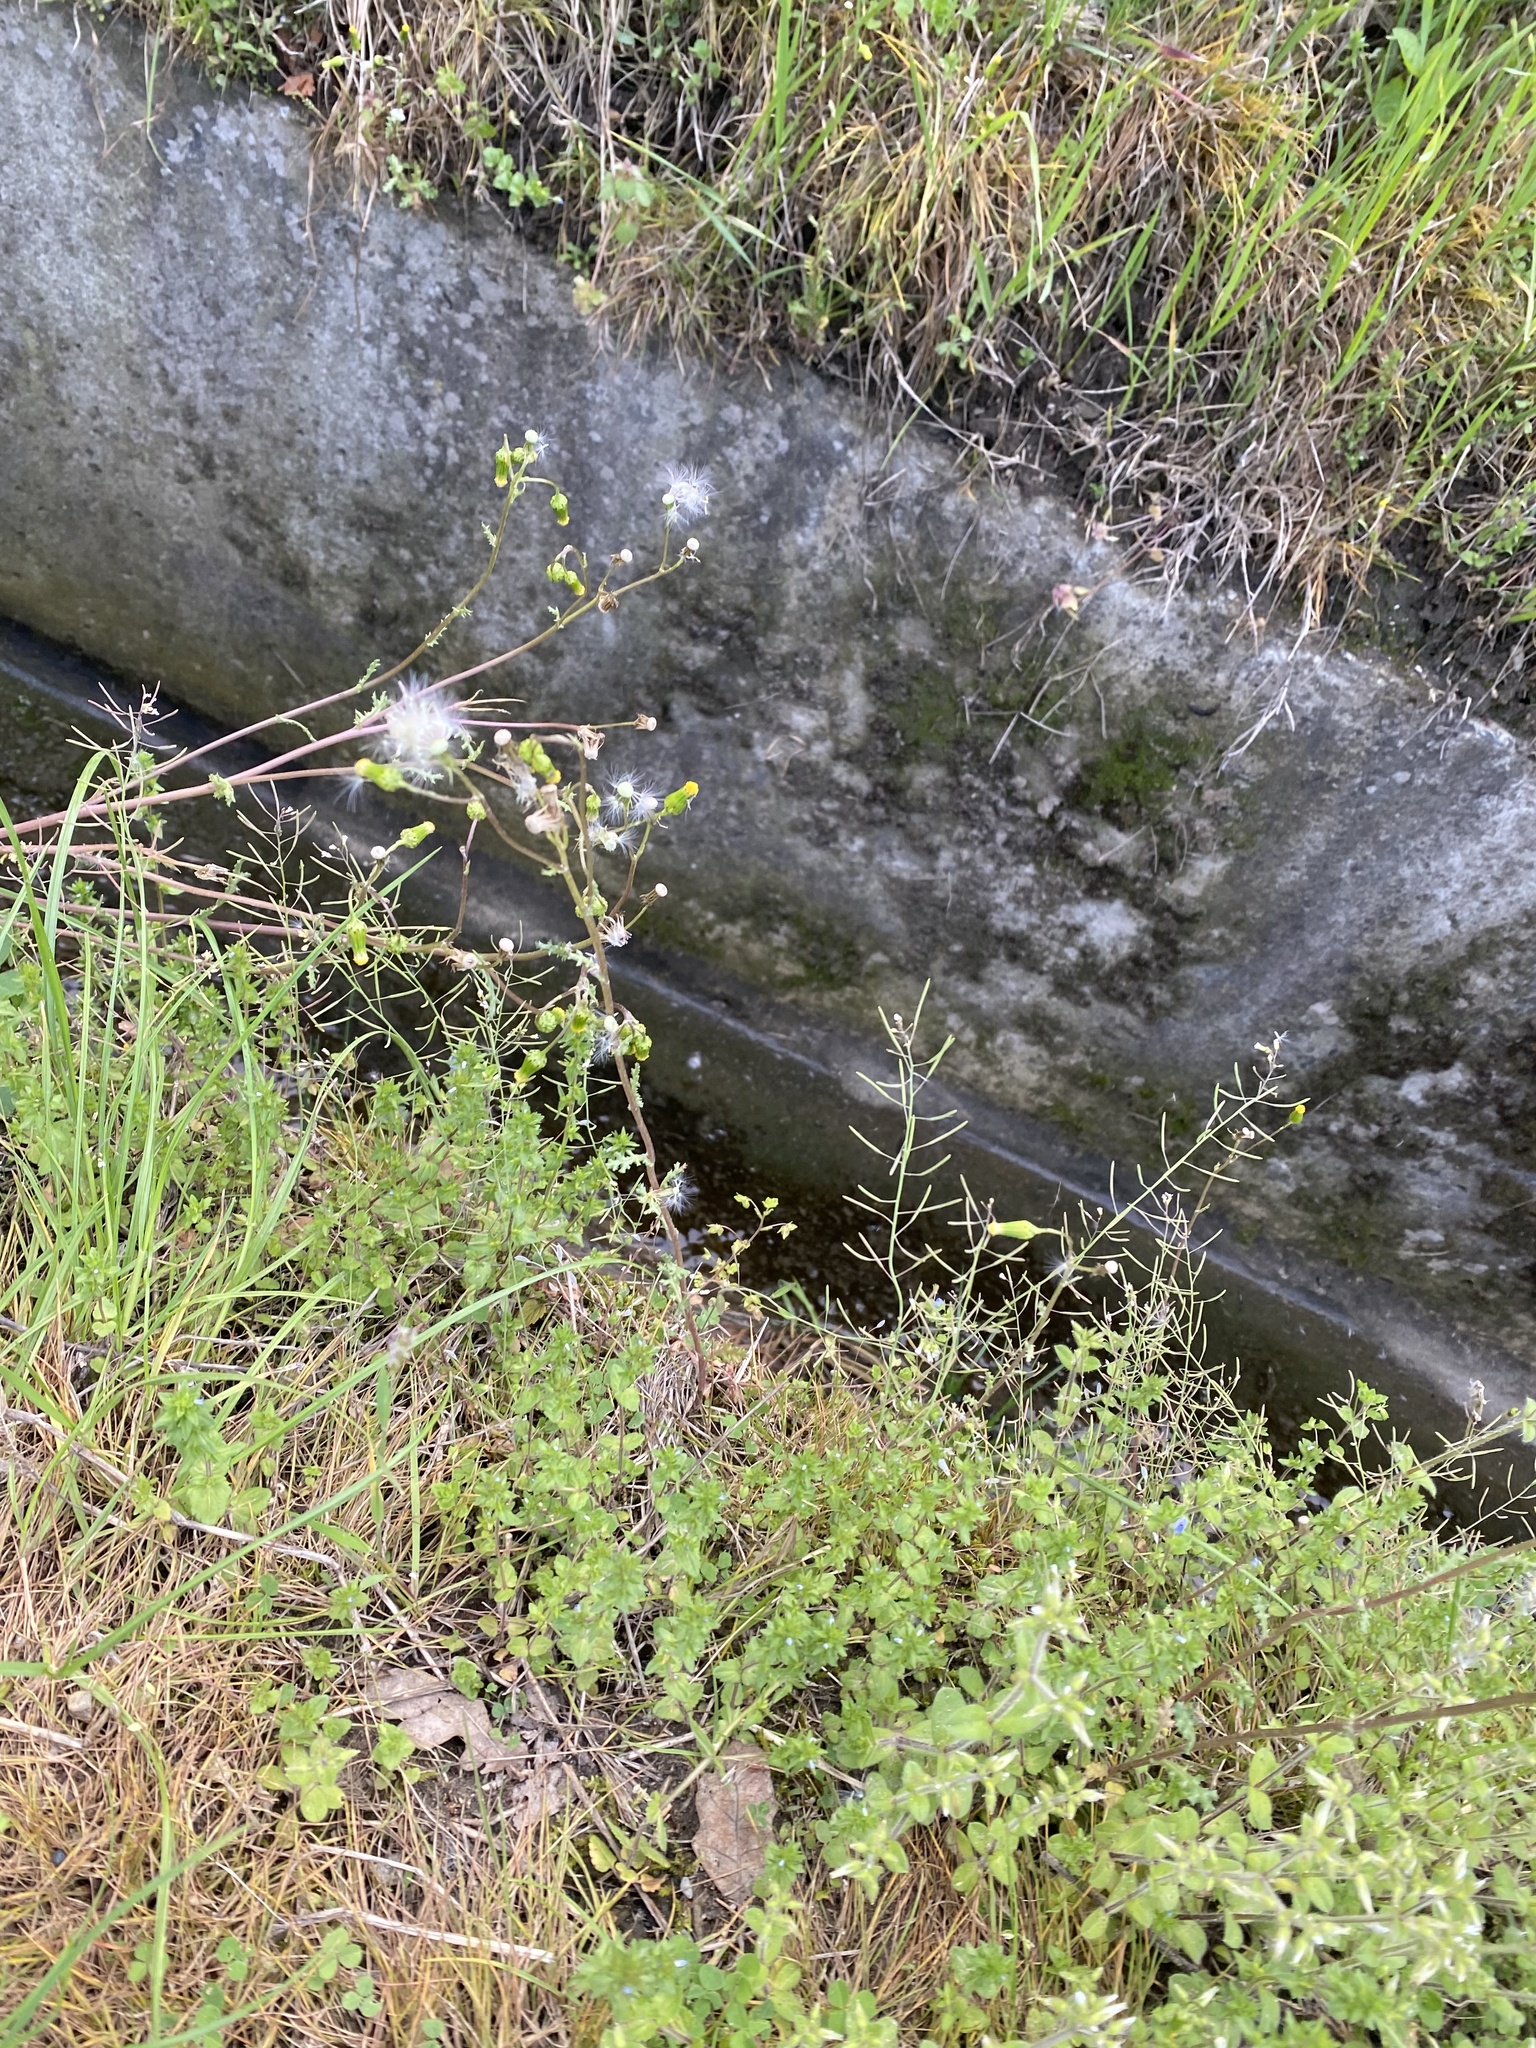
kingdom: Plantae
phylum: Tracheophyta
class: Magnoliopsida
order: Asterales
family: Asteraceae
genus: Senecio
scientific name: Senecio vulgaris
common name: Old-man-in-the-spring
